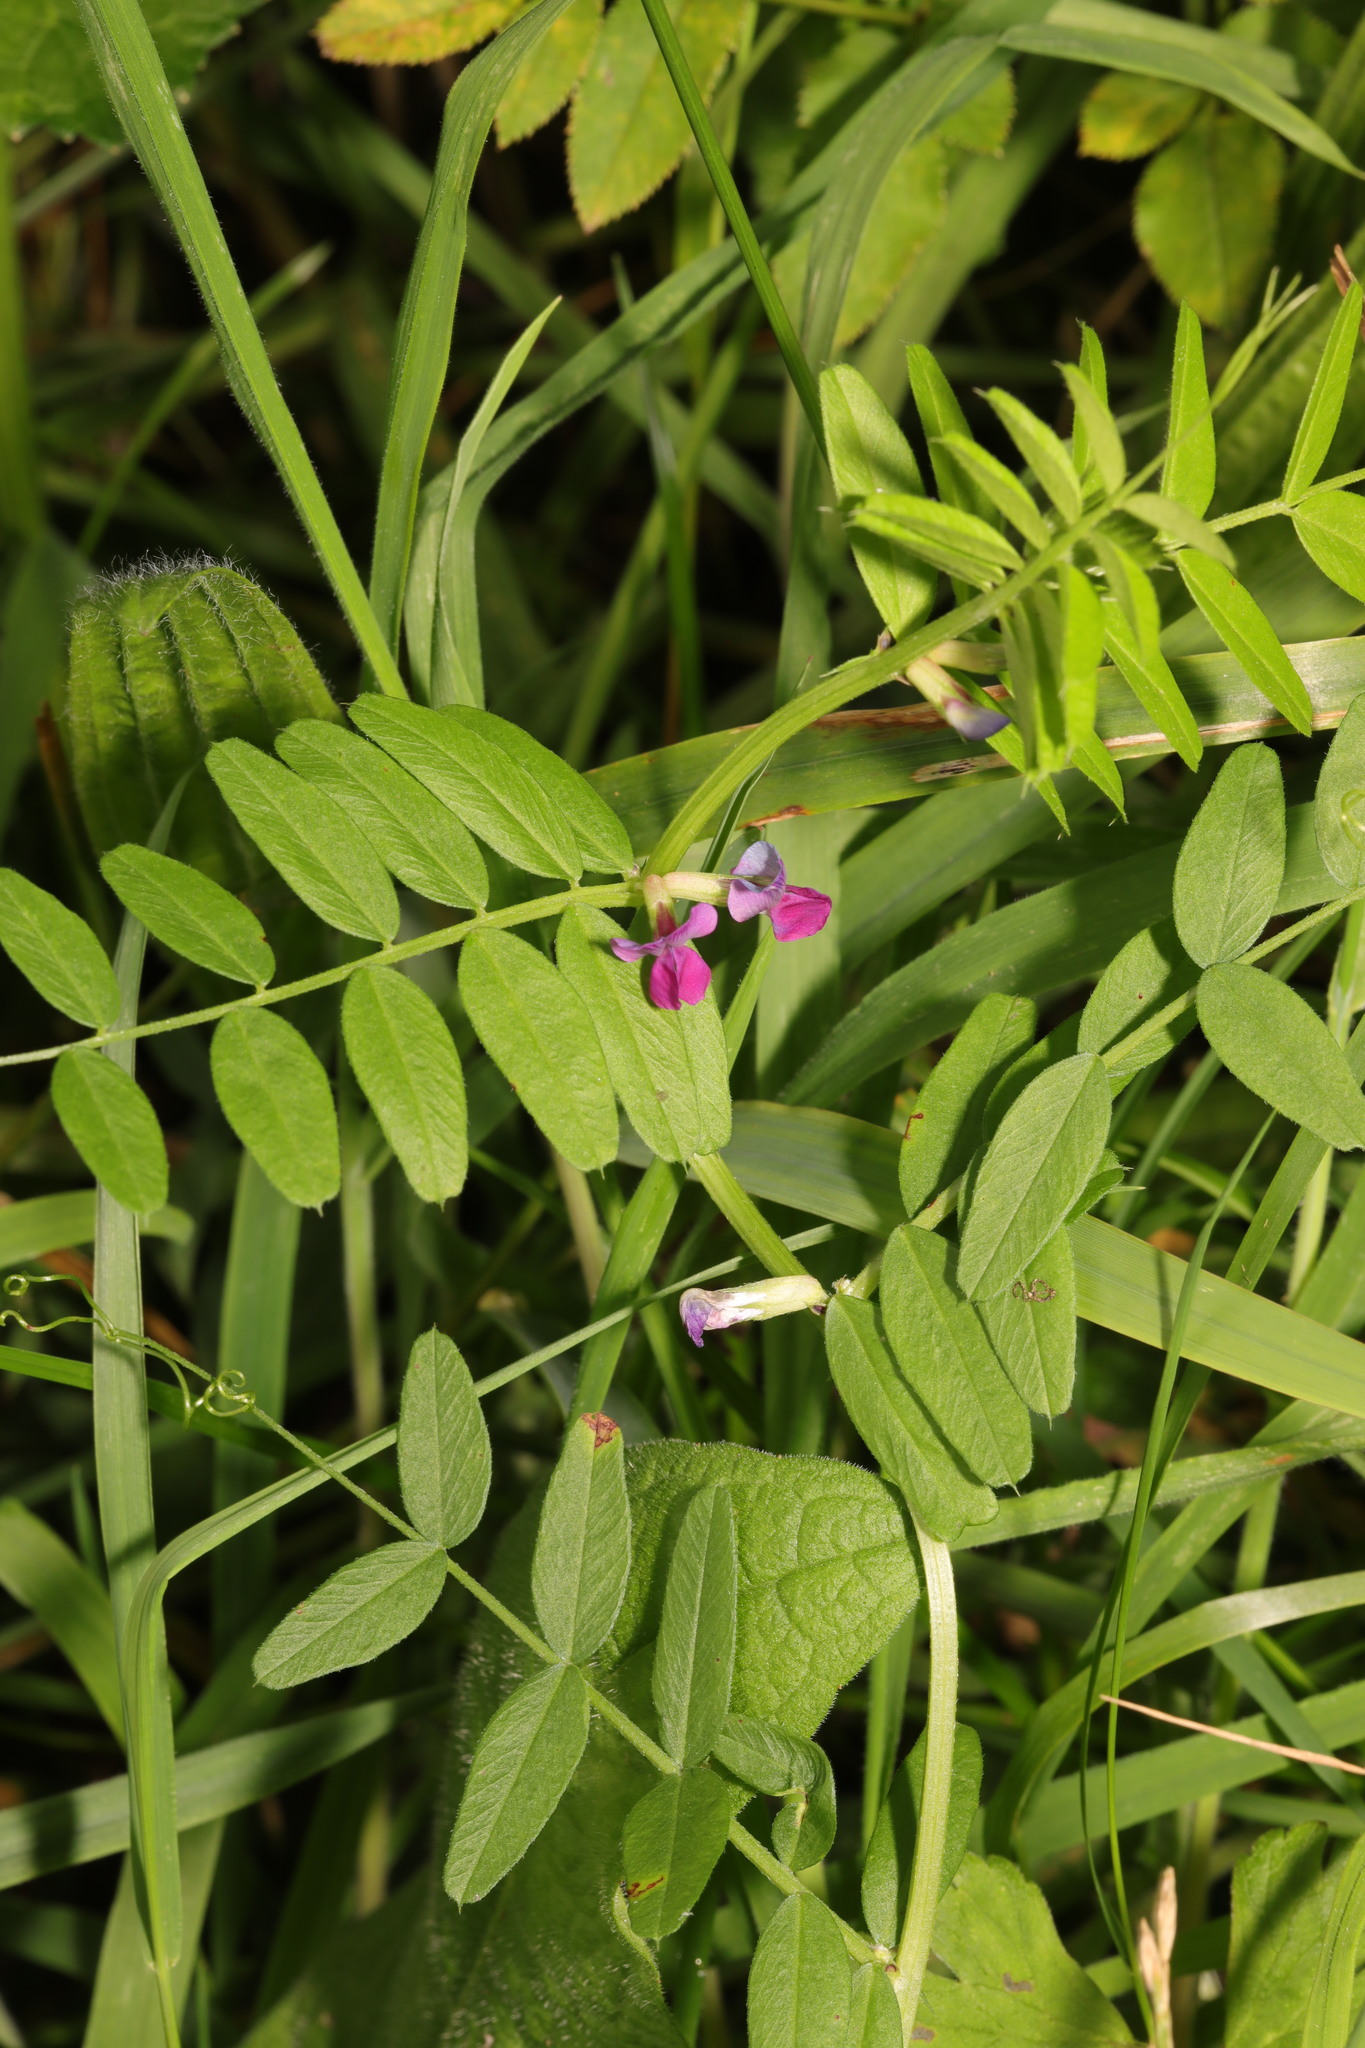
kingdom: Plantae
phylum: Tracheophyta
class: Magnoliopsida
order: Fabales
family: Fabaceae
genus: Vicia
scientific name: Vicia sepium
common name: Bush vetch
